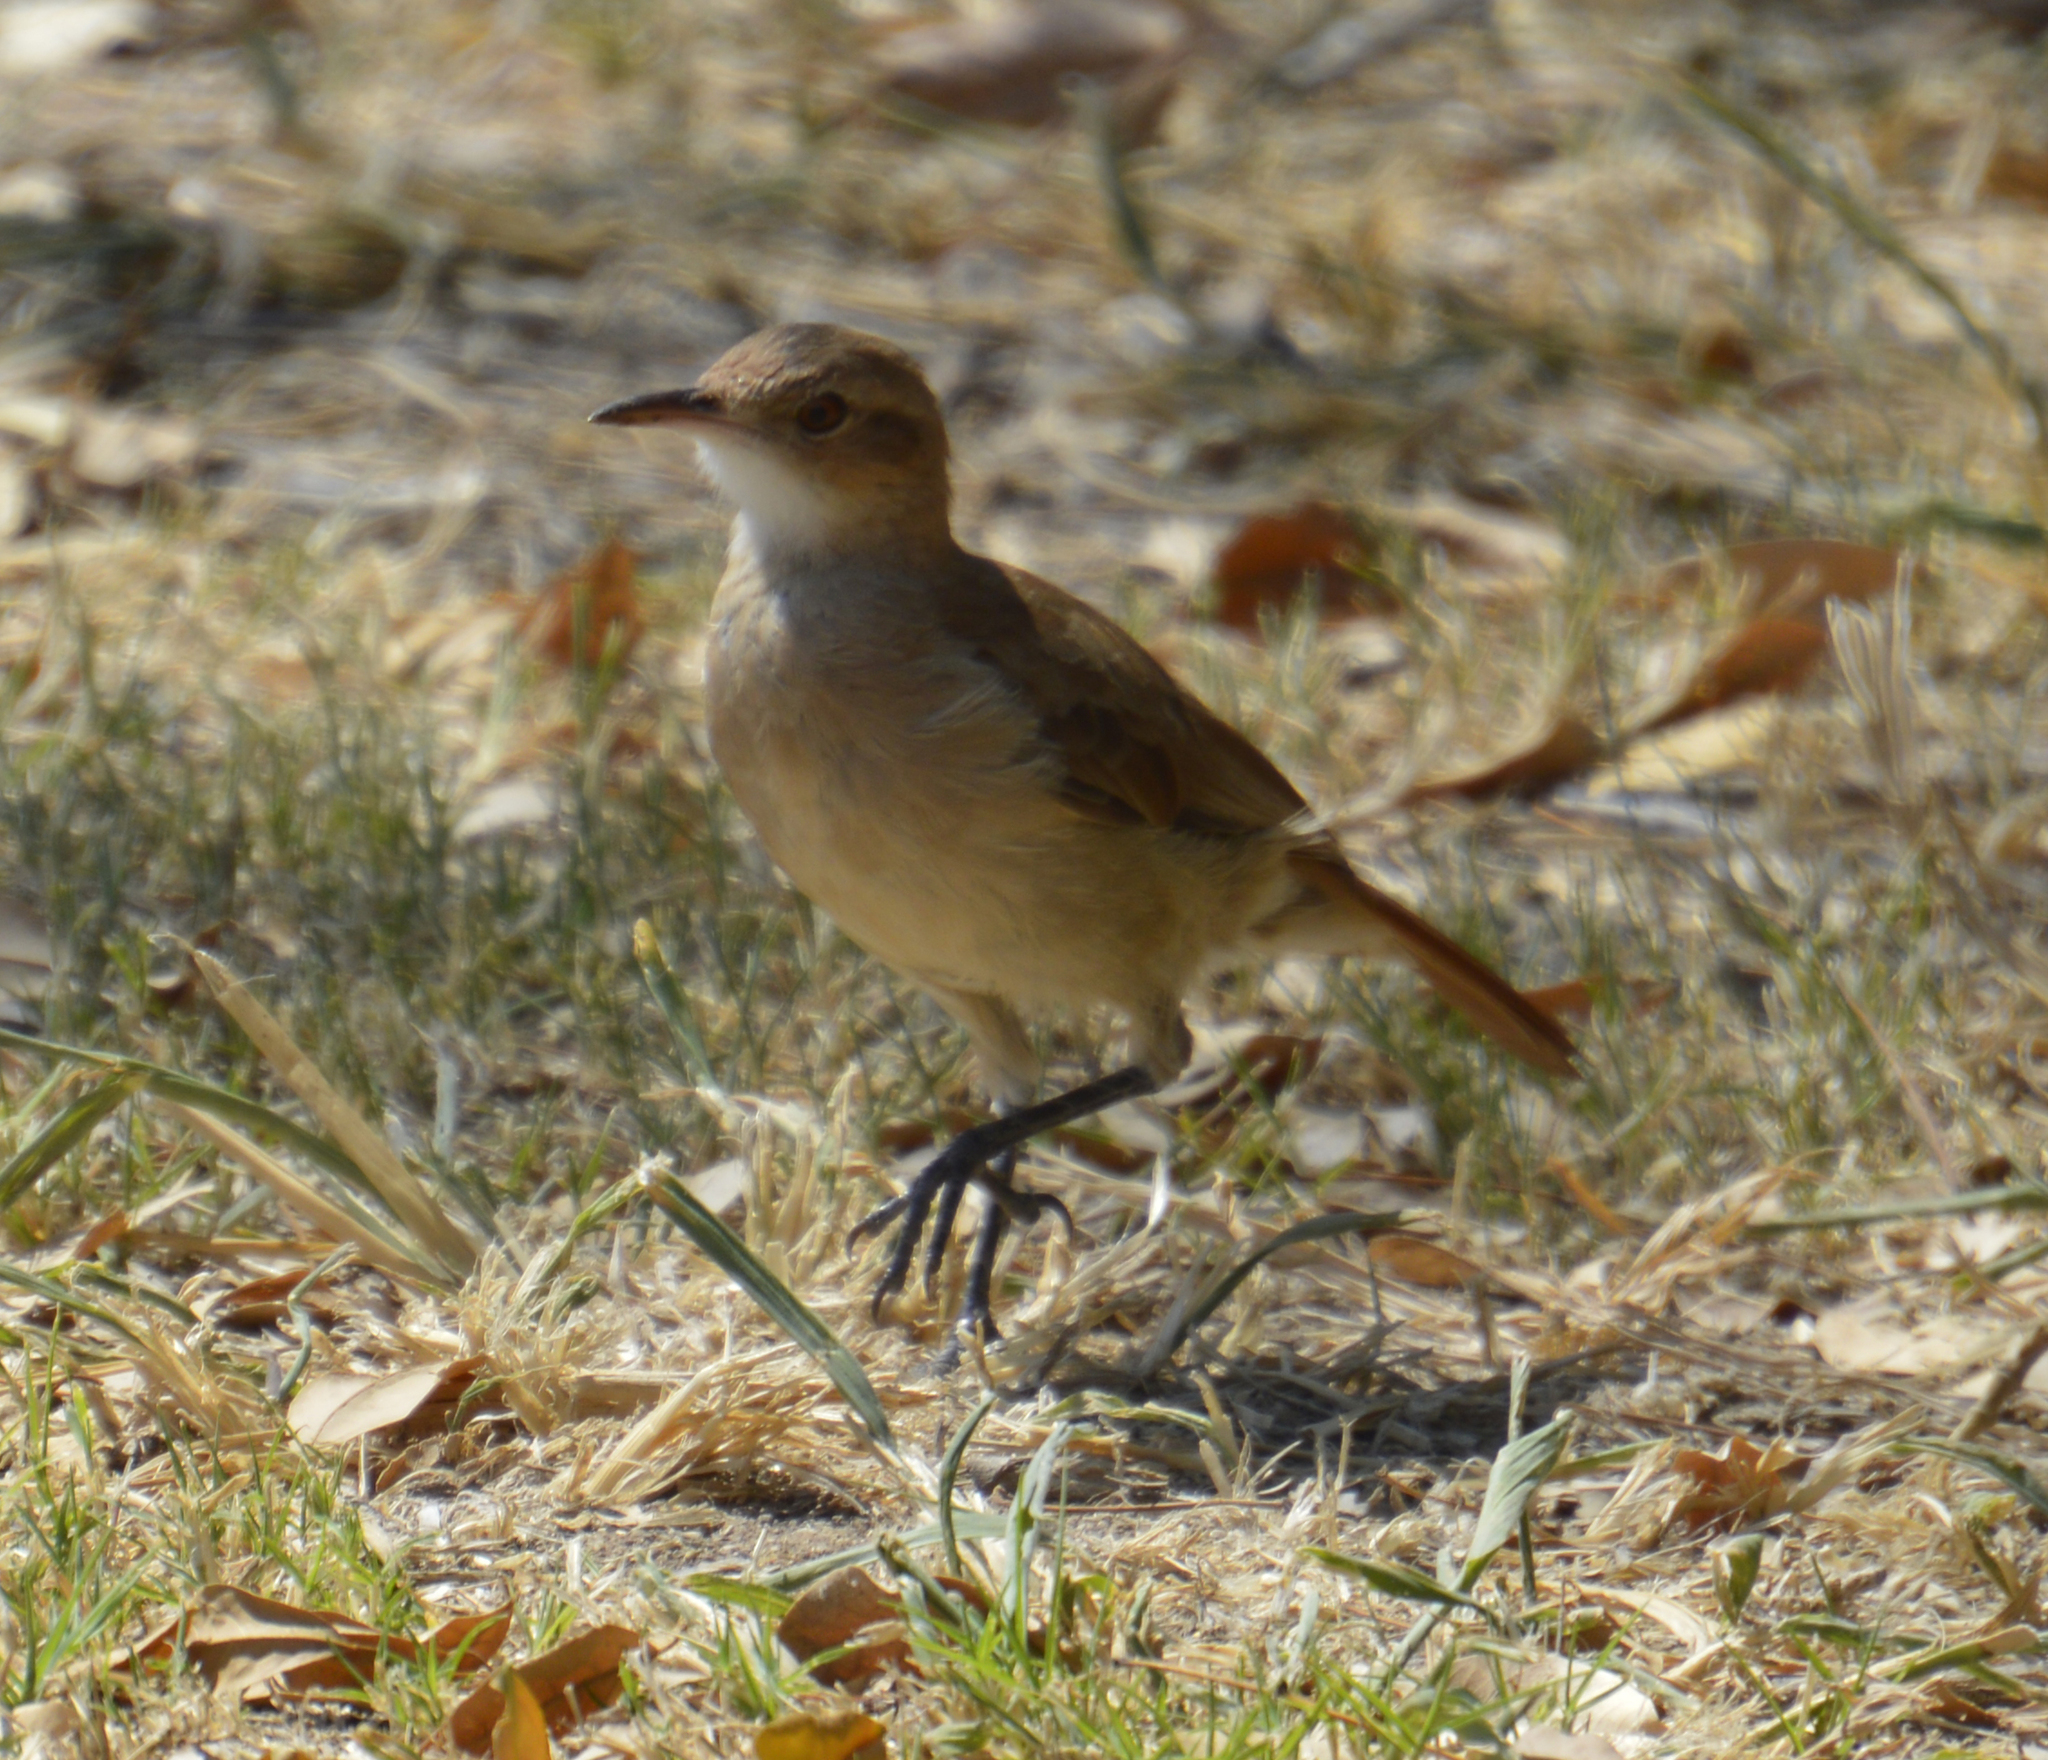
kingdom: Animalia
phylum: Chordata
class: Aves
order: Passeriformes
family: Furnariidae
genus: Furnarius
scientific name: Furnarius rufus
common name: Rufous hornero
